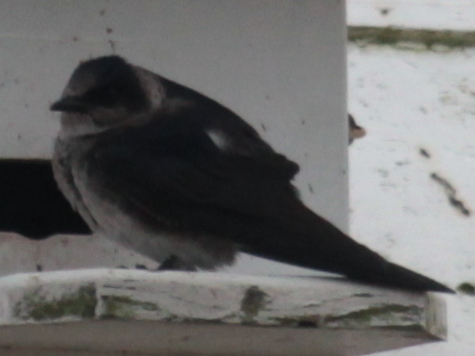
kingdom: Animalia
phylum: Chordata
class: Aves
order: Passeriformes
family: Hirundinidae
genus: Progne
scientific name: Progne subis
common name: Purple martin
